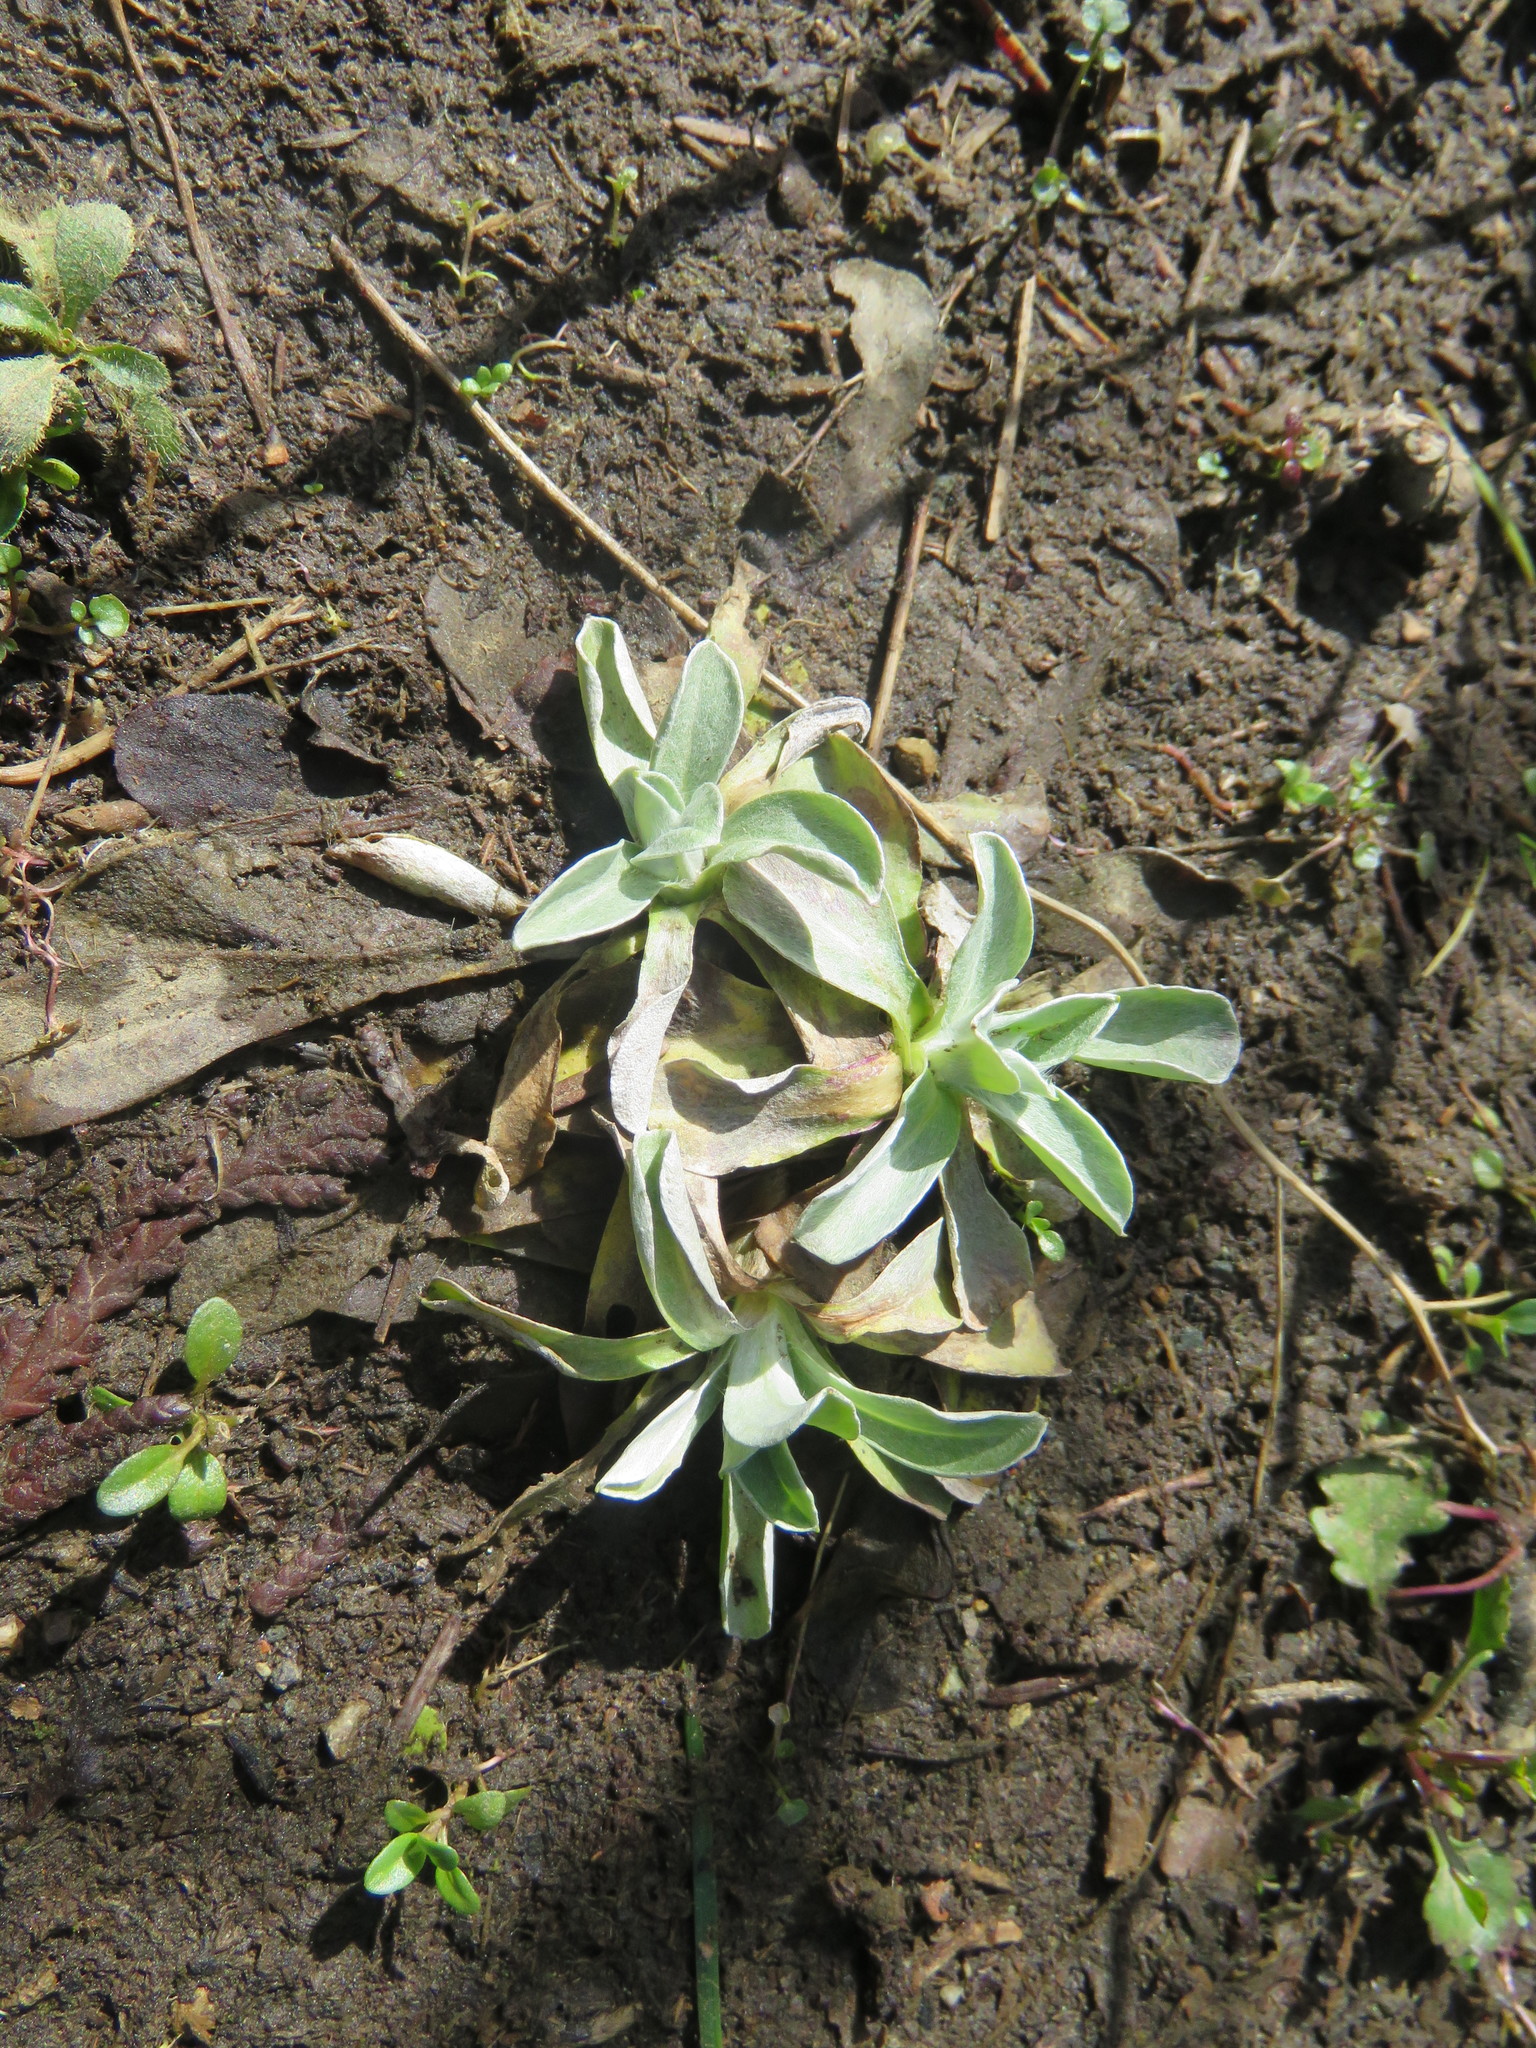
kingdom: Plantae
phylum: Tracheophyta
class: Magnoliopsida
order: Asterales
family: Asteraceae
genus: Gamochaeta
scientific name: Gamochaeta ustulata
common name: Pacific cudweed
